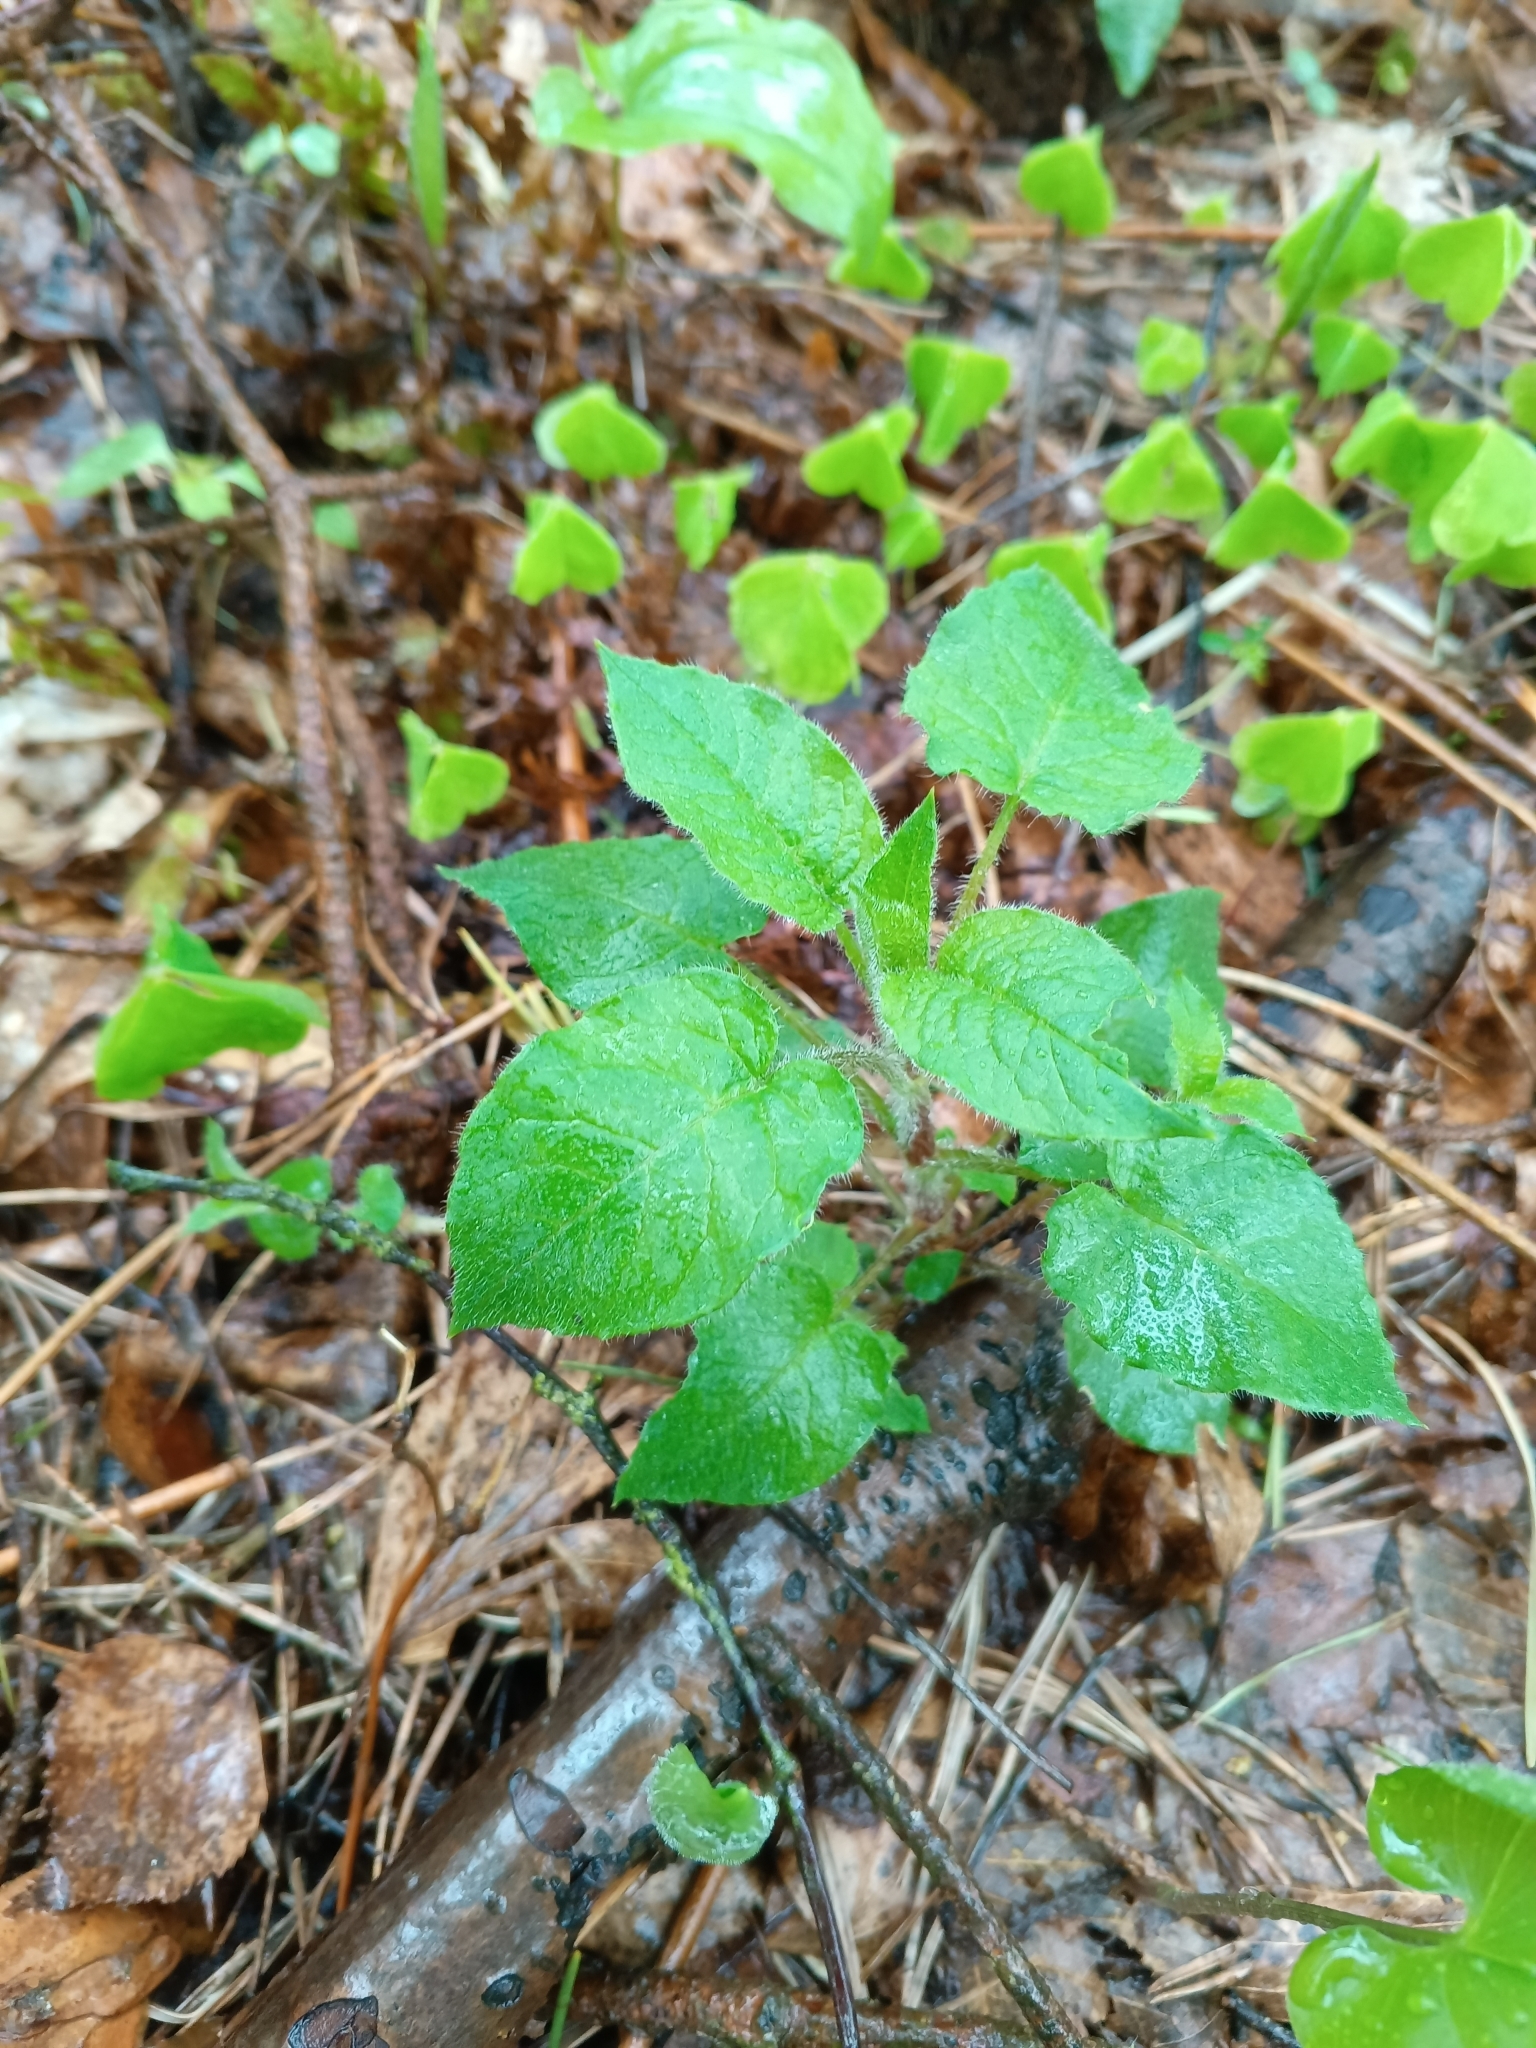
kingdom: Plantae
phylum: Tracheophyta
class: Magnoliopsida
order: Caryophyllales
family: Caryophyllaceae
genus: Stellaria
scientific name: Stellaria nemorum
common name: Wood stitchwort
